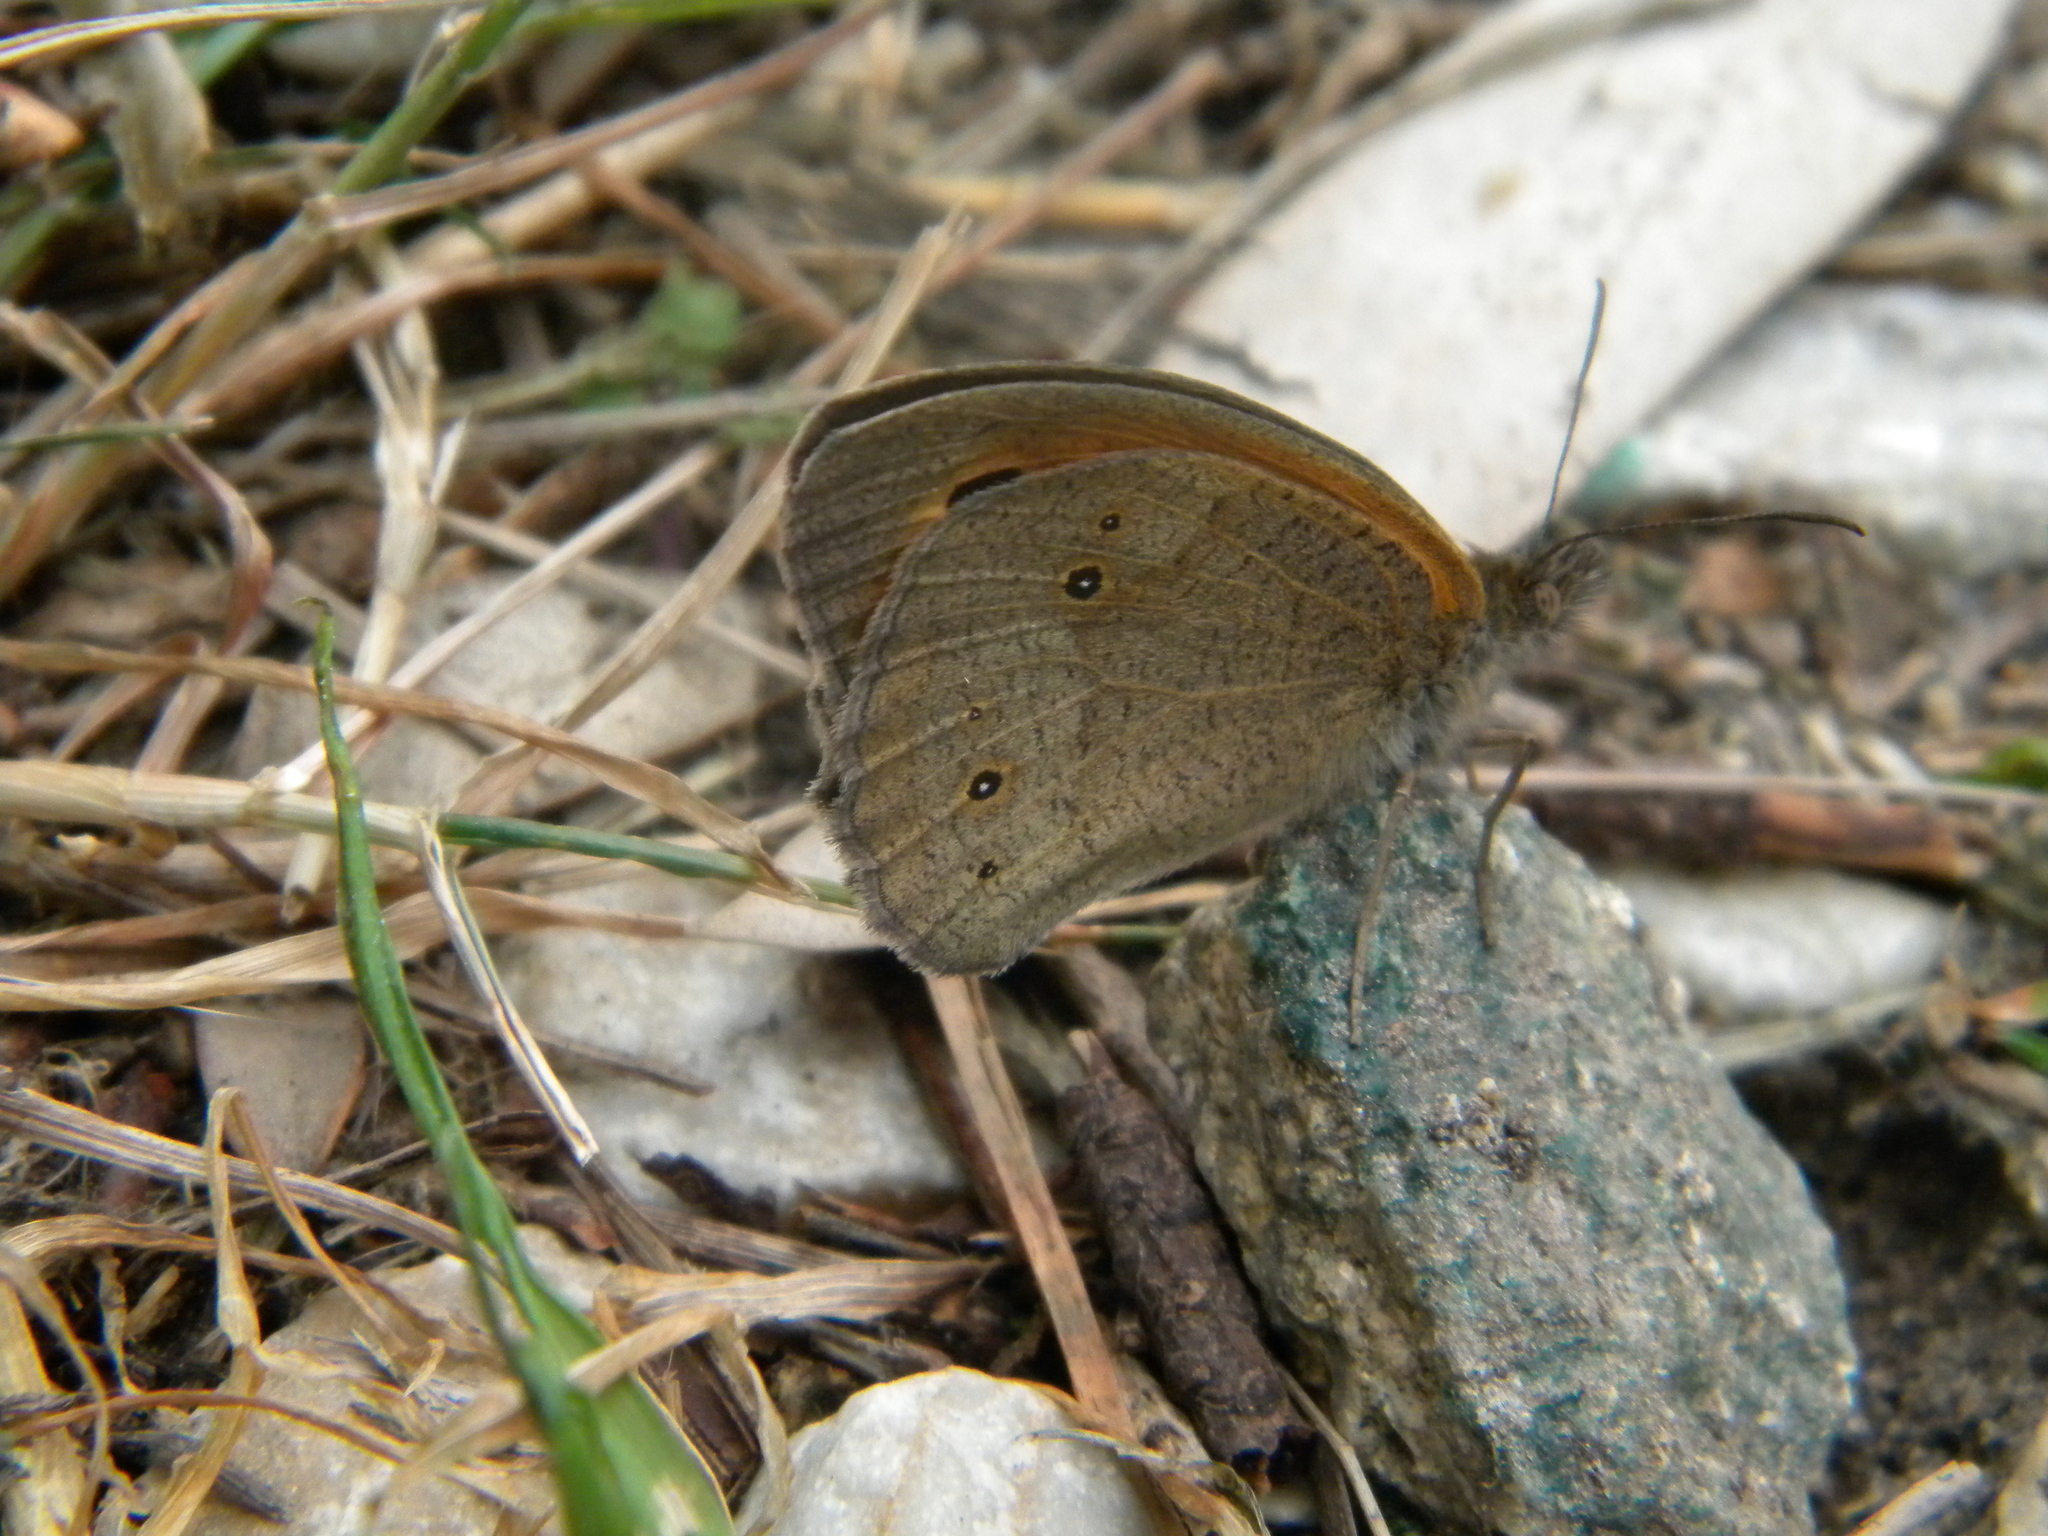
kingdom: Animalia
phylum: Arthropoda
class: Insecta
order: Lepidoptera
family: Nymphalidae
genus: Maniola
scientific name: Maniola telmessia
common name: Persian meadow brown
